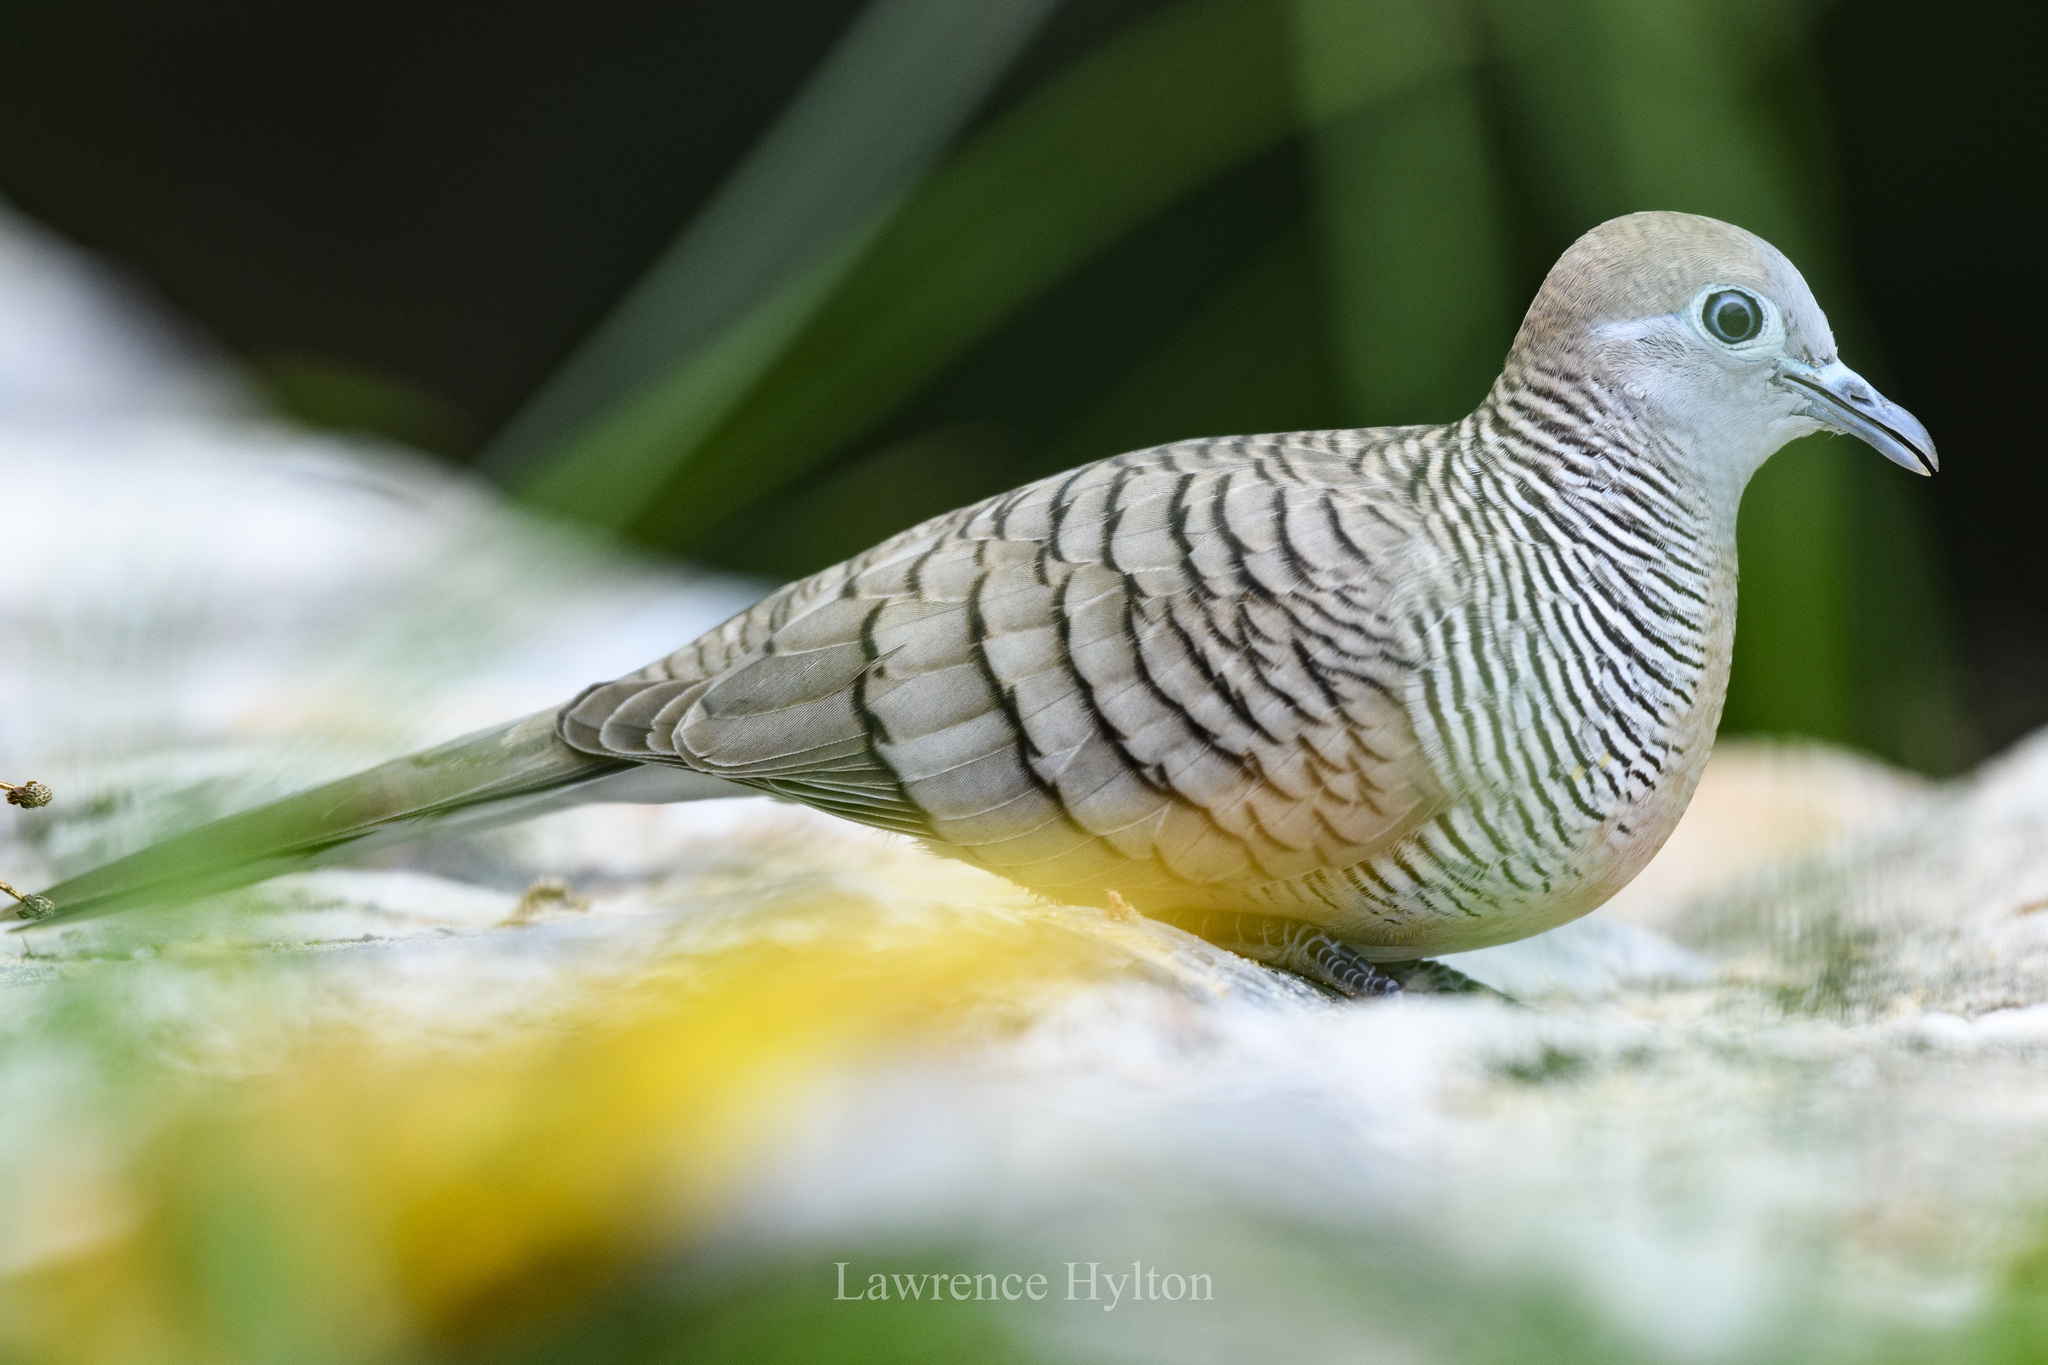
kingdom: Animalia
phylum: Chordata
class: Aves
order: Columbiformes
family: Columbidae
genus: Geopelia
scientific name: Geopelia striata
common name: Zebra dove
